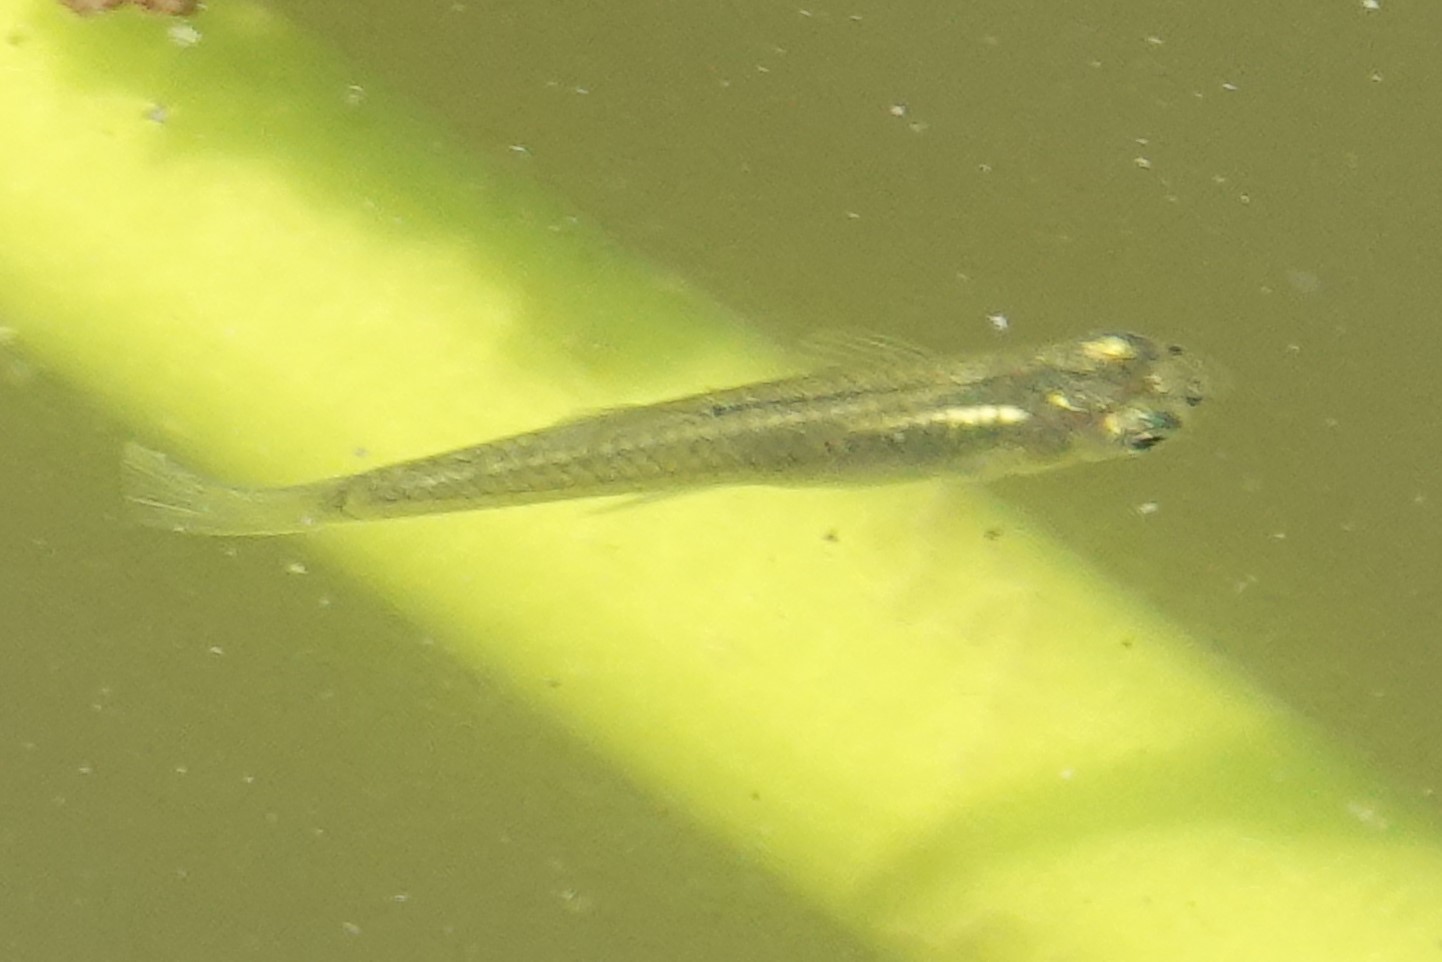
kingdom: Animalia
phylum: Chordata
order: Cyprinodontiformes
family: Poeciliidae
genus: Gambusia
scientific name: Gambusia holbrooki
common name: Eastern mosquitofish
